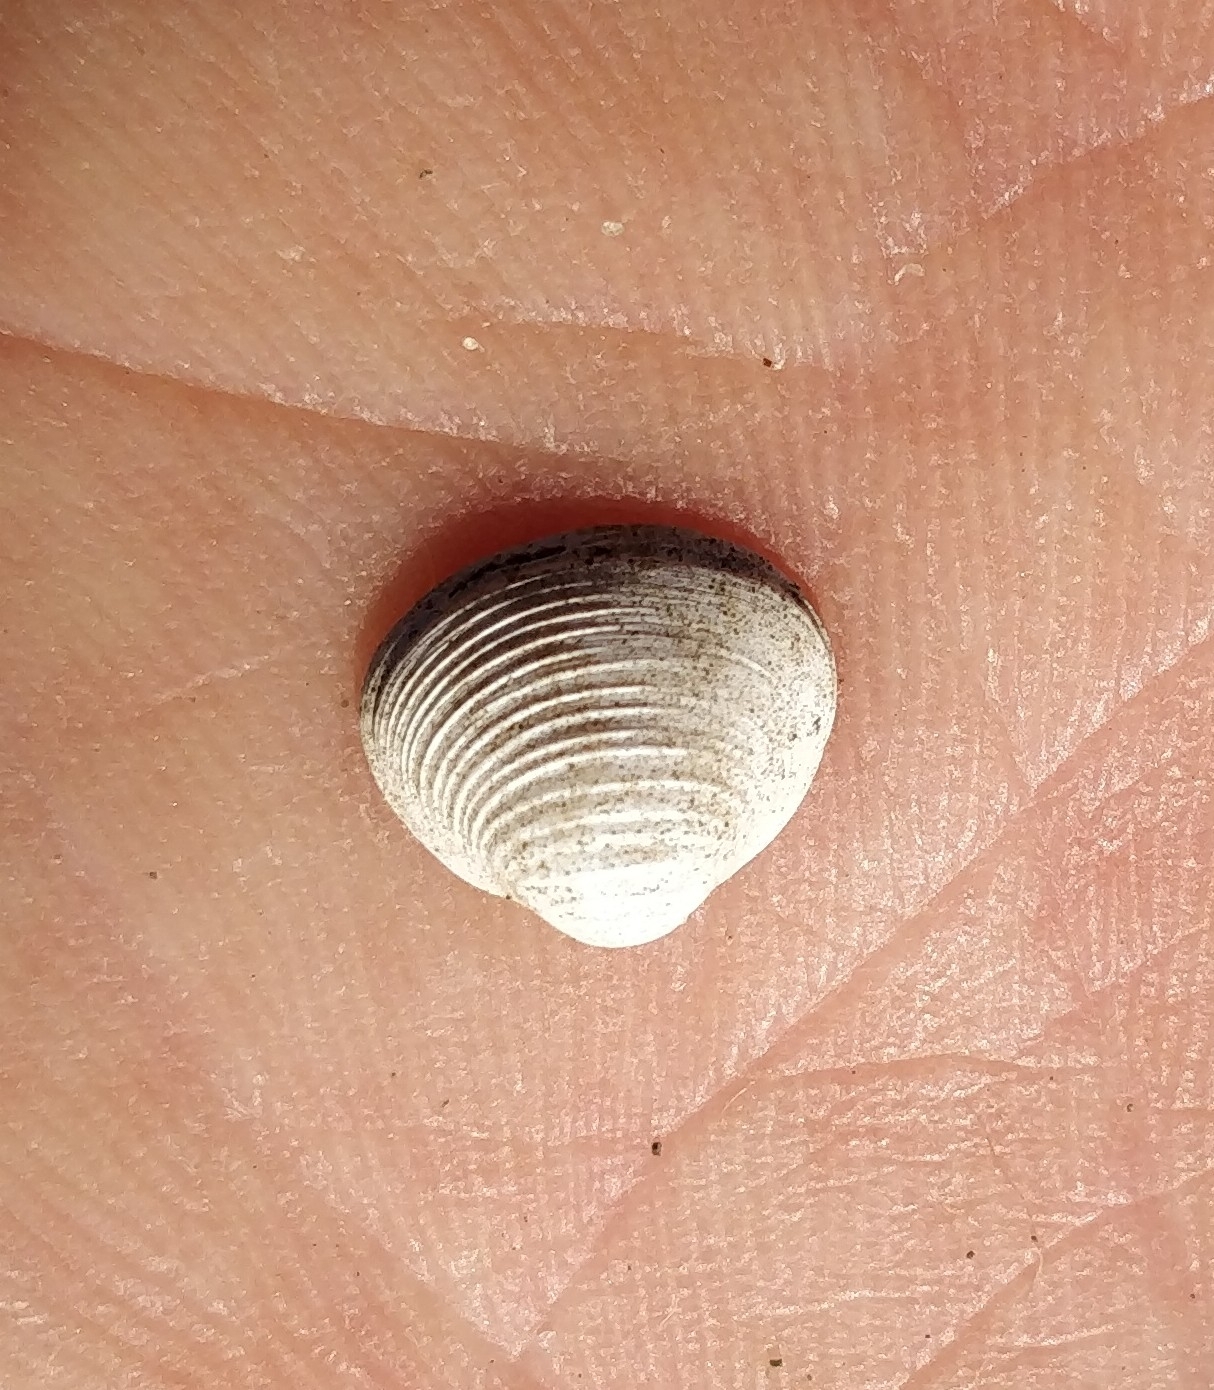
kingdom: Animalia
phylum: Mollusca
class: Bivalvia
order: Sphaeriida
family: Sphaeriidae
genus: Sphaerium
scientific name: Sphaerium striatinum
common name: Striated fingernailclam
